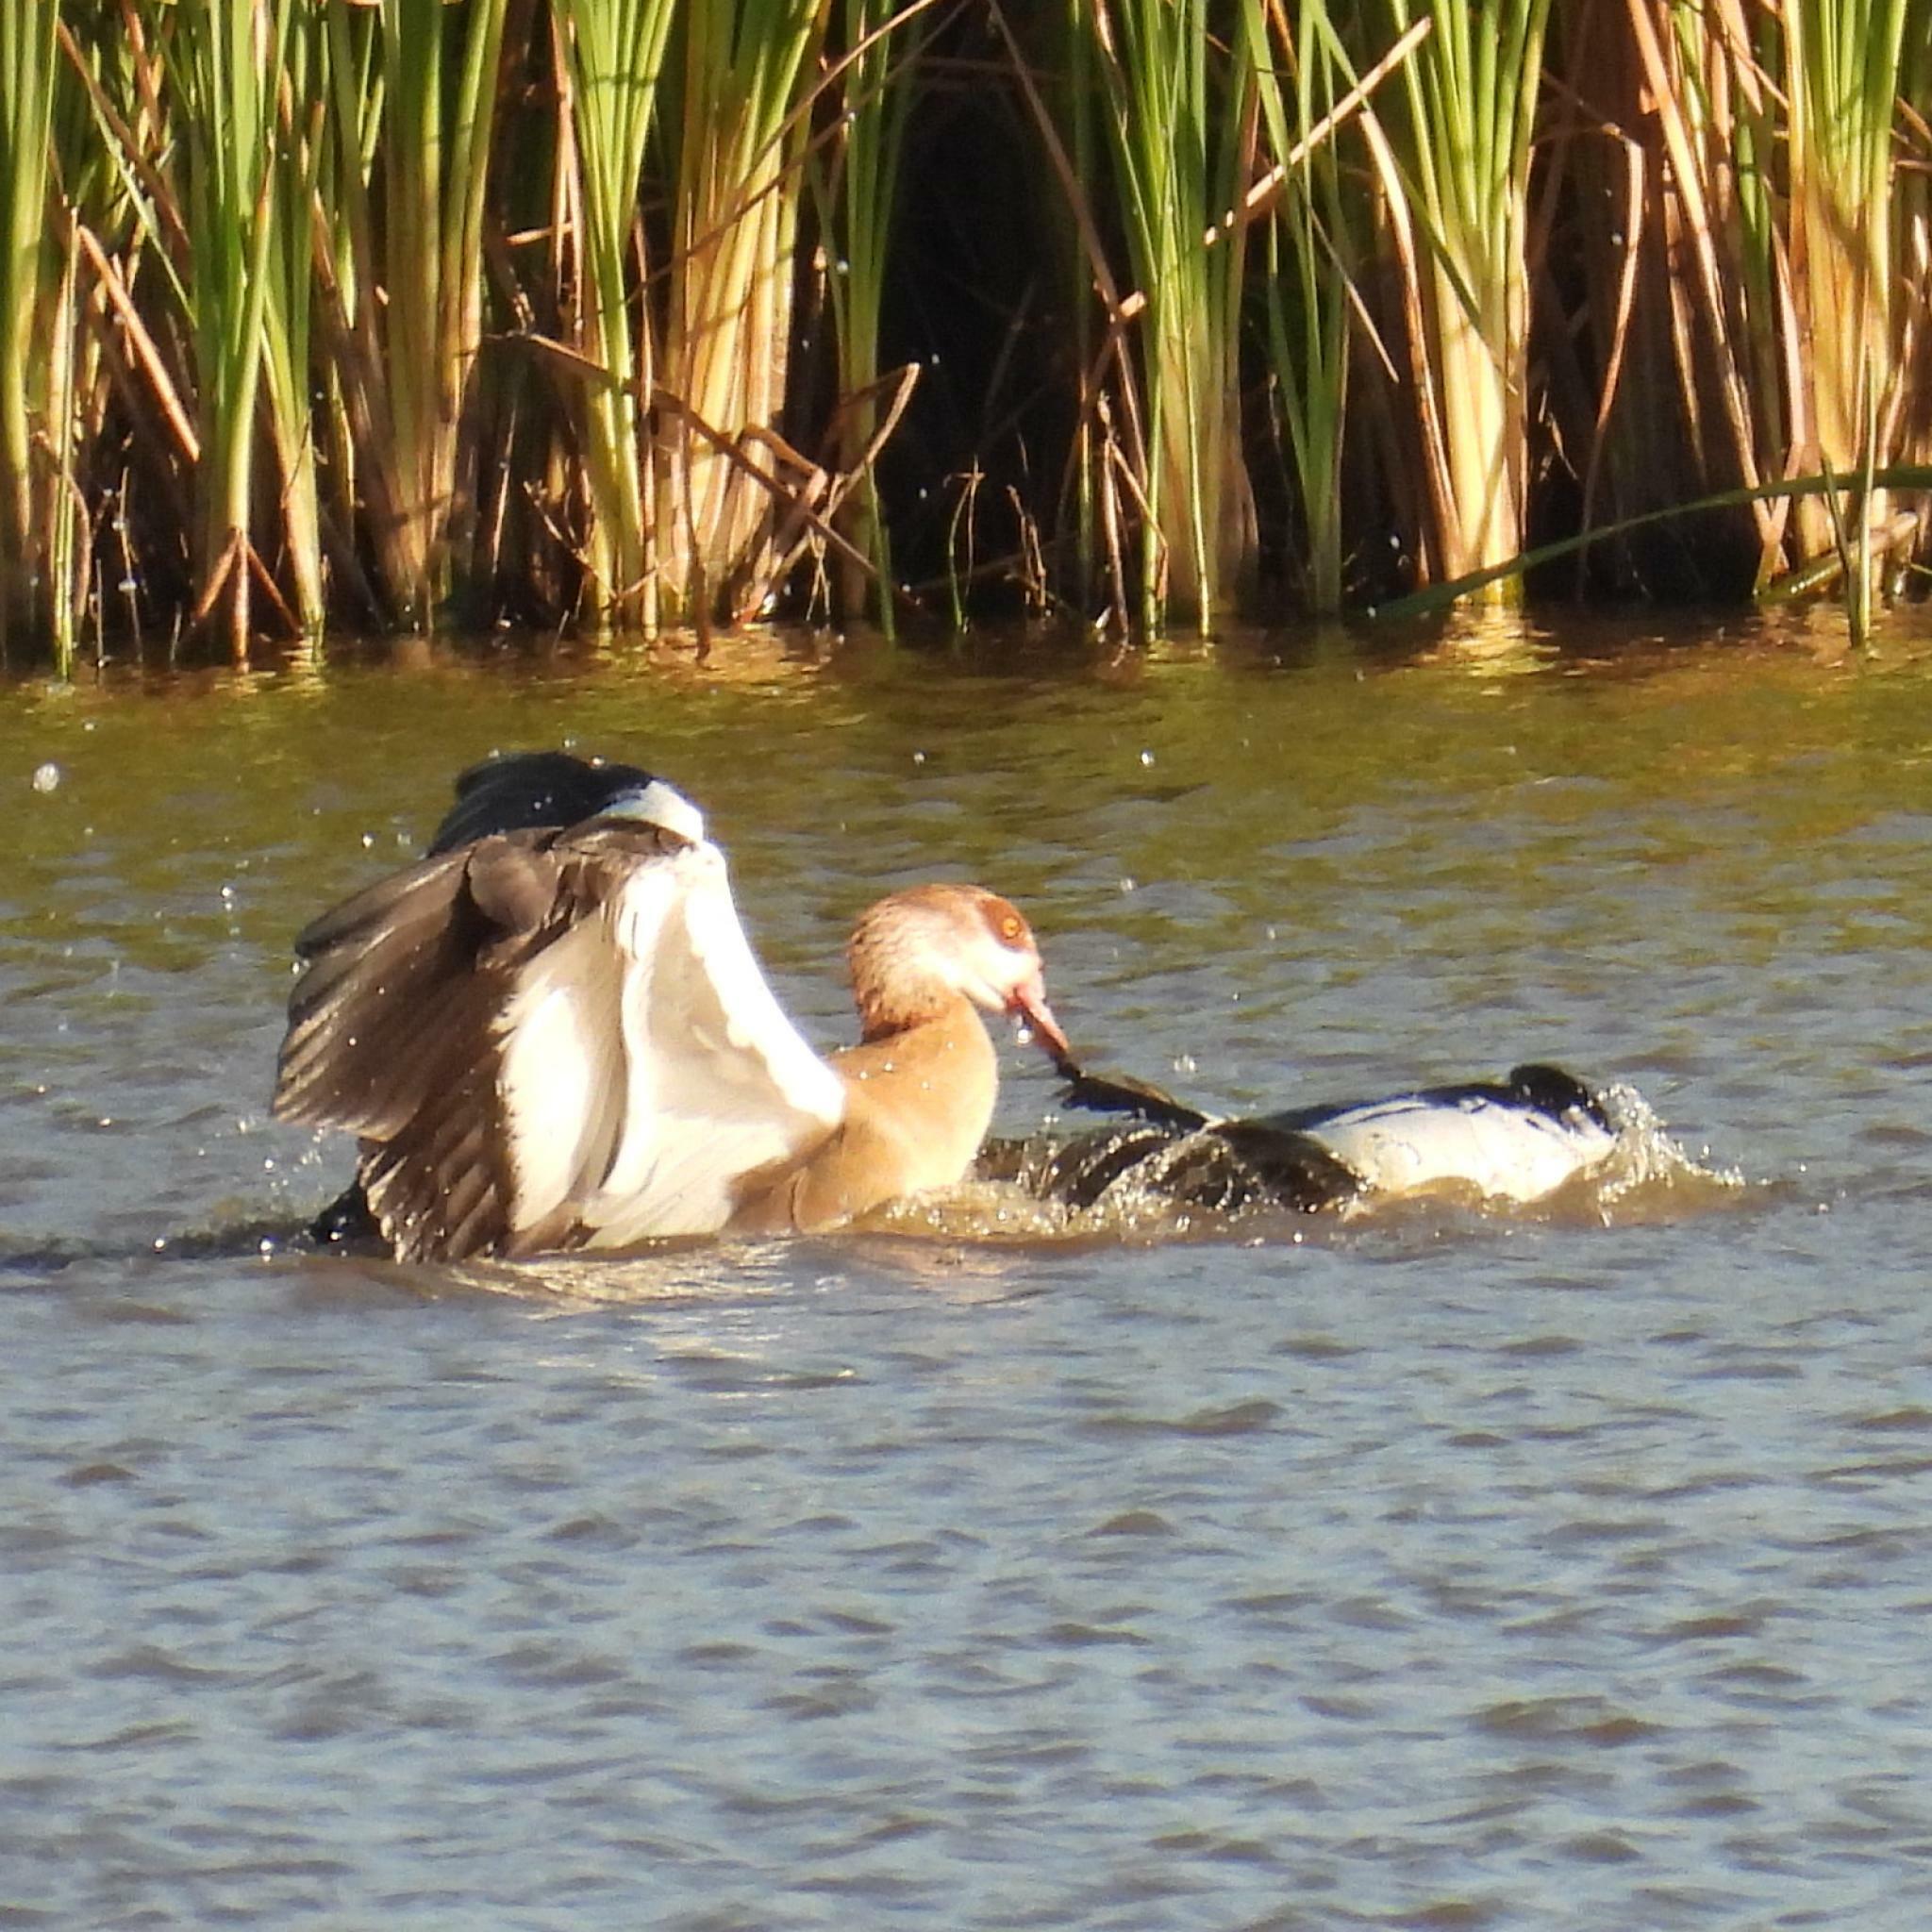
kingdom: Animalia
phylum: Chordata
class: Aves
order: Anseriformes
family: Anatidae
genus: Alopochen
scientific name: Alopochen aegyptiaca
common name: Egyptian goose
